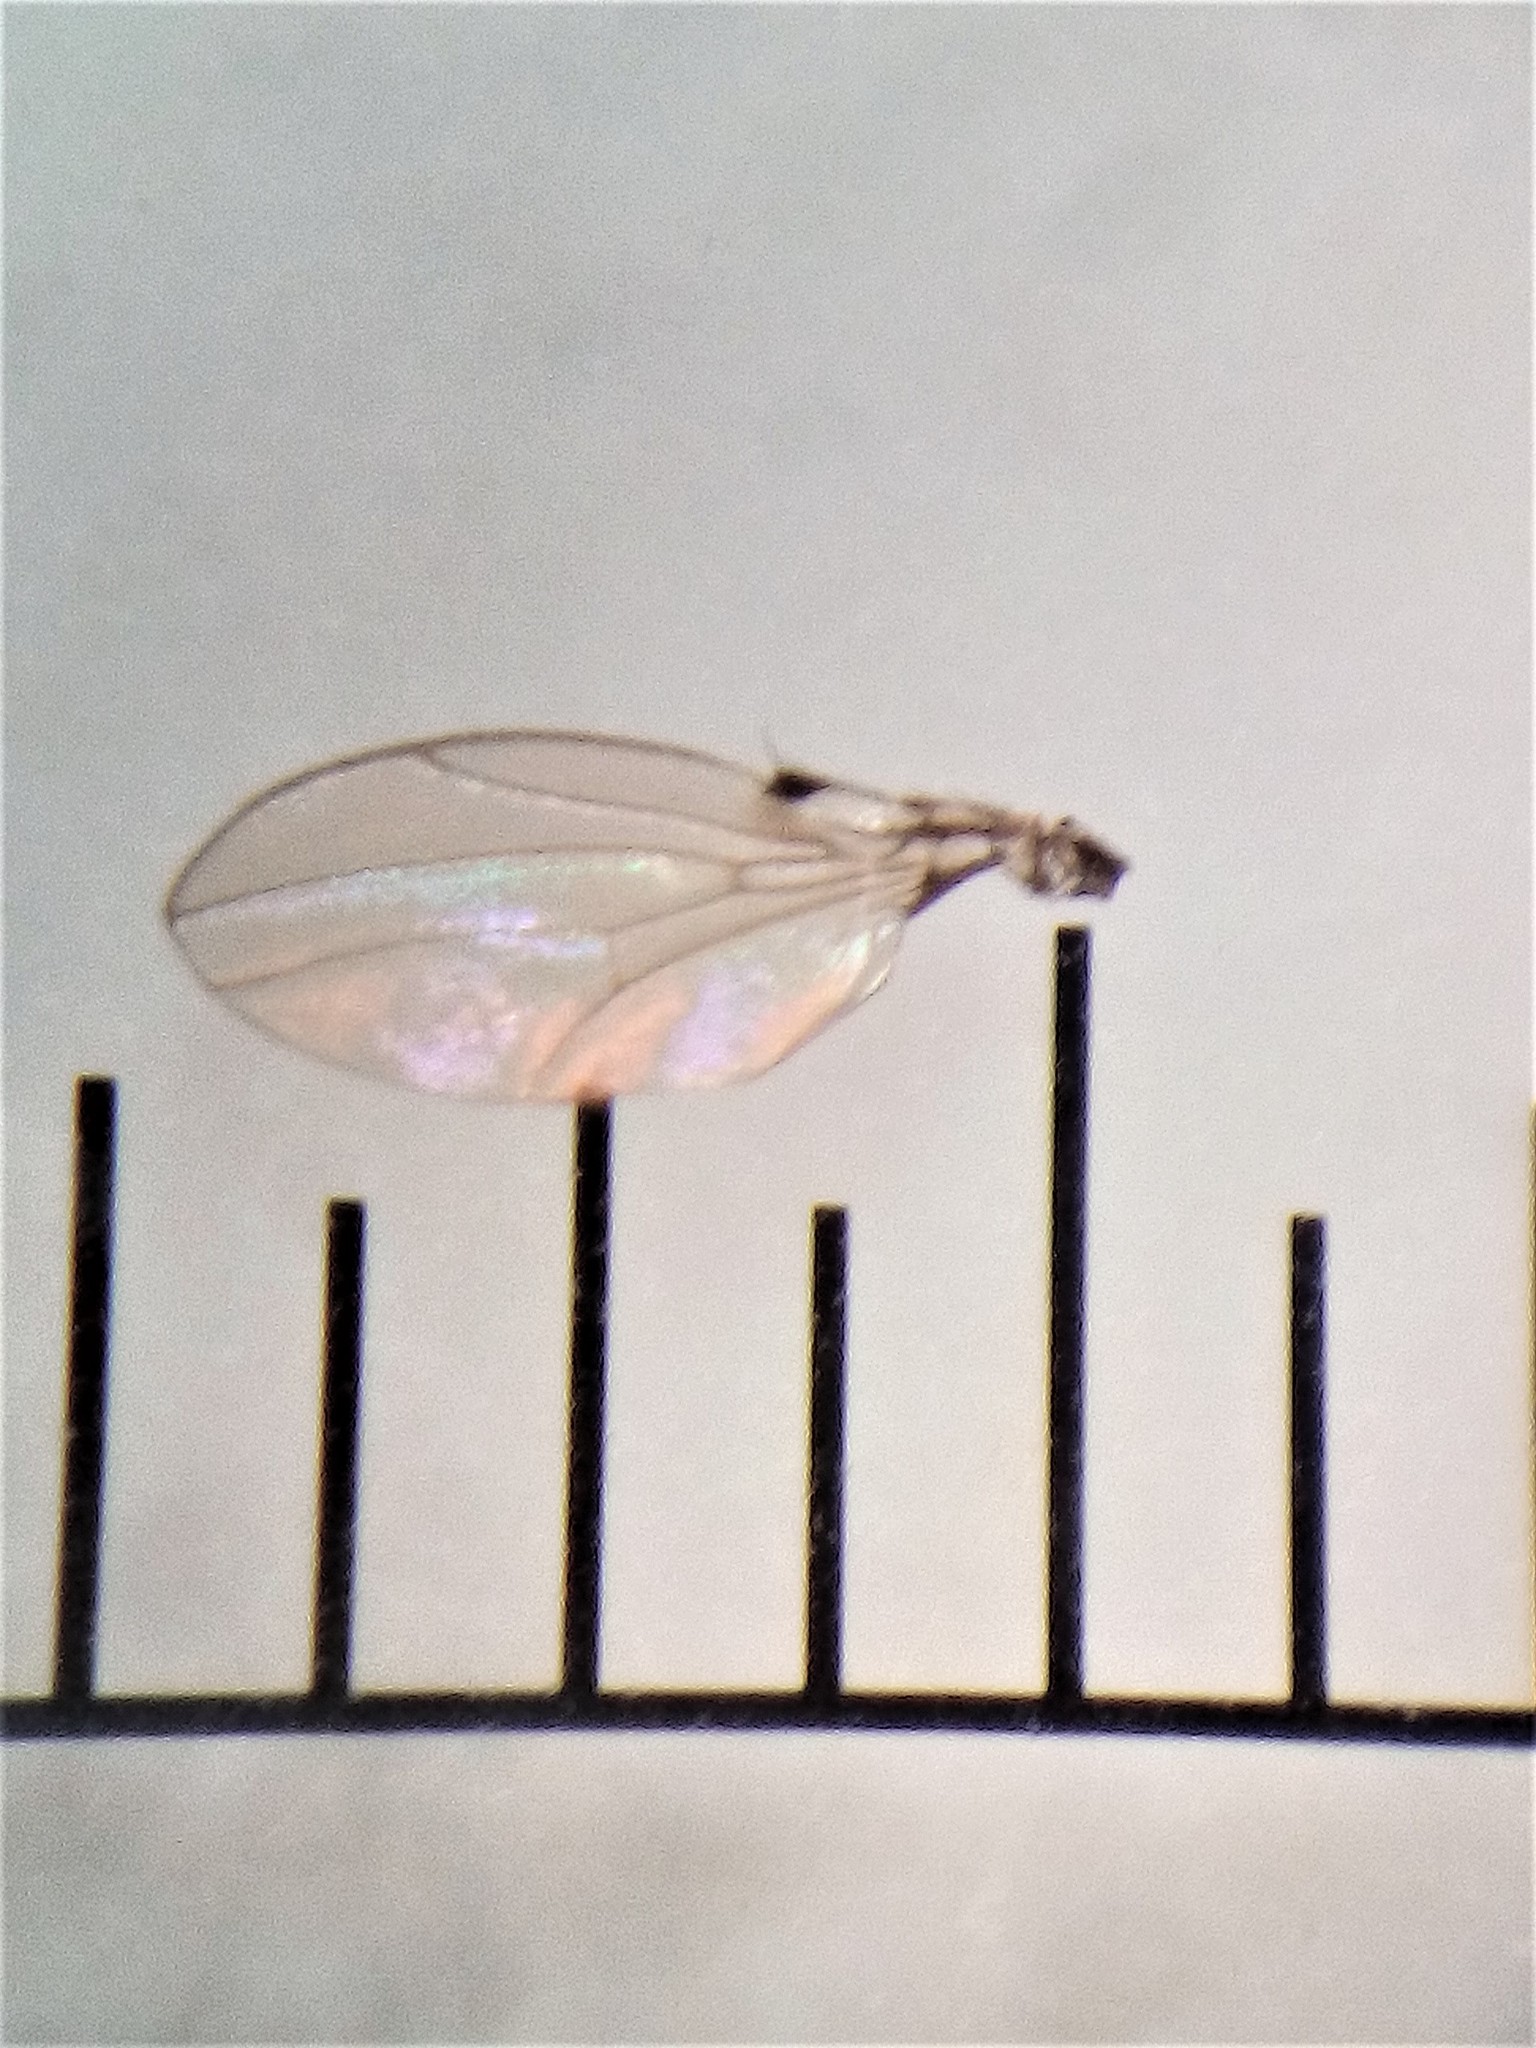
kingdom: Animalia
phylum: Arthropoda
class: Insecta
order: Diptera
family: Drosophilidae
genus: Dettopsomyia
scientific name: Dettopsomyia nigrovittata
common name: Pomace fly
